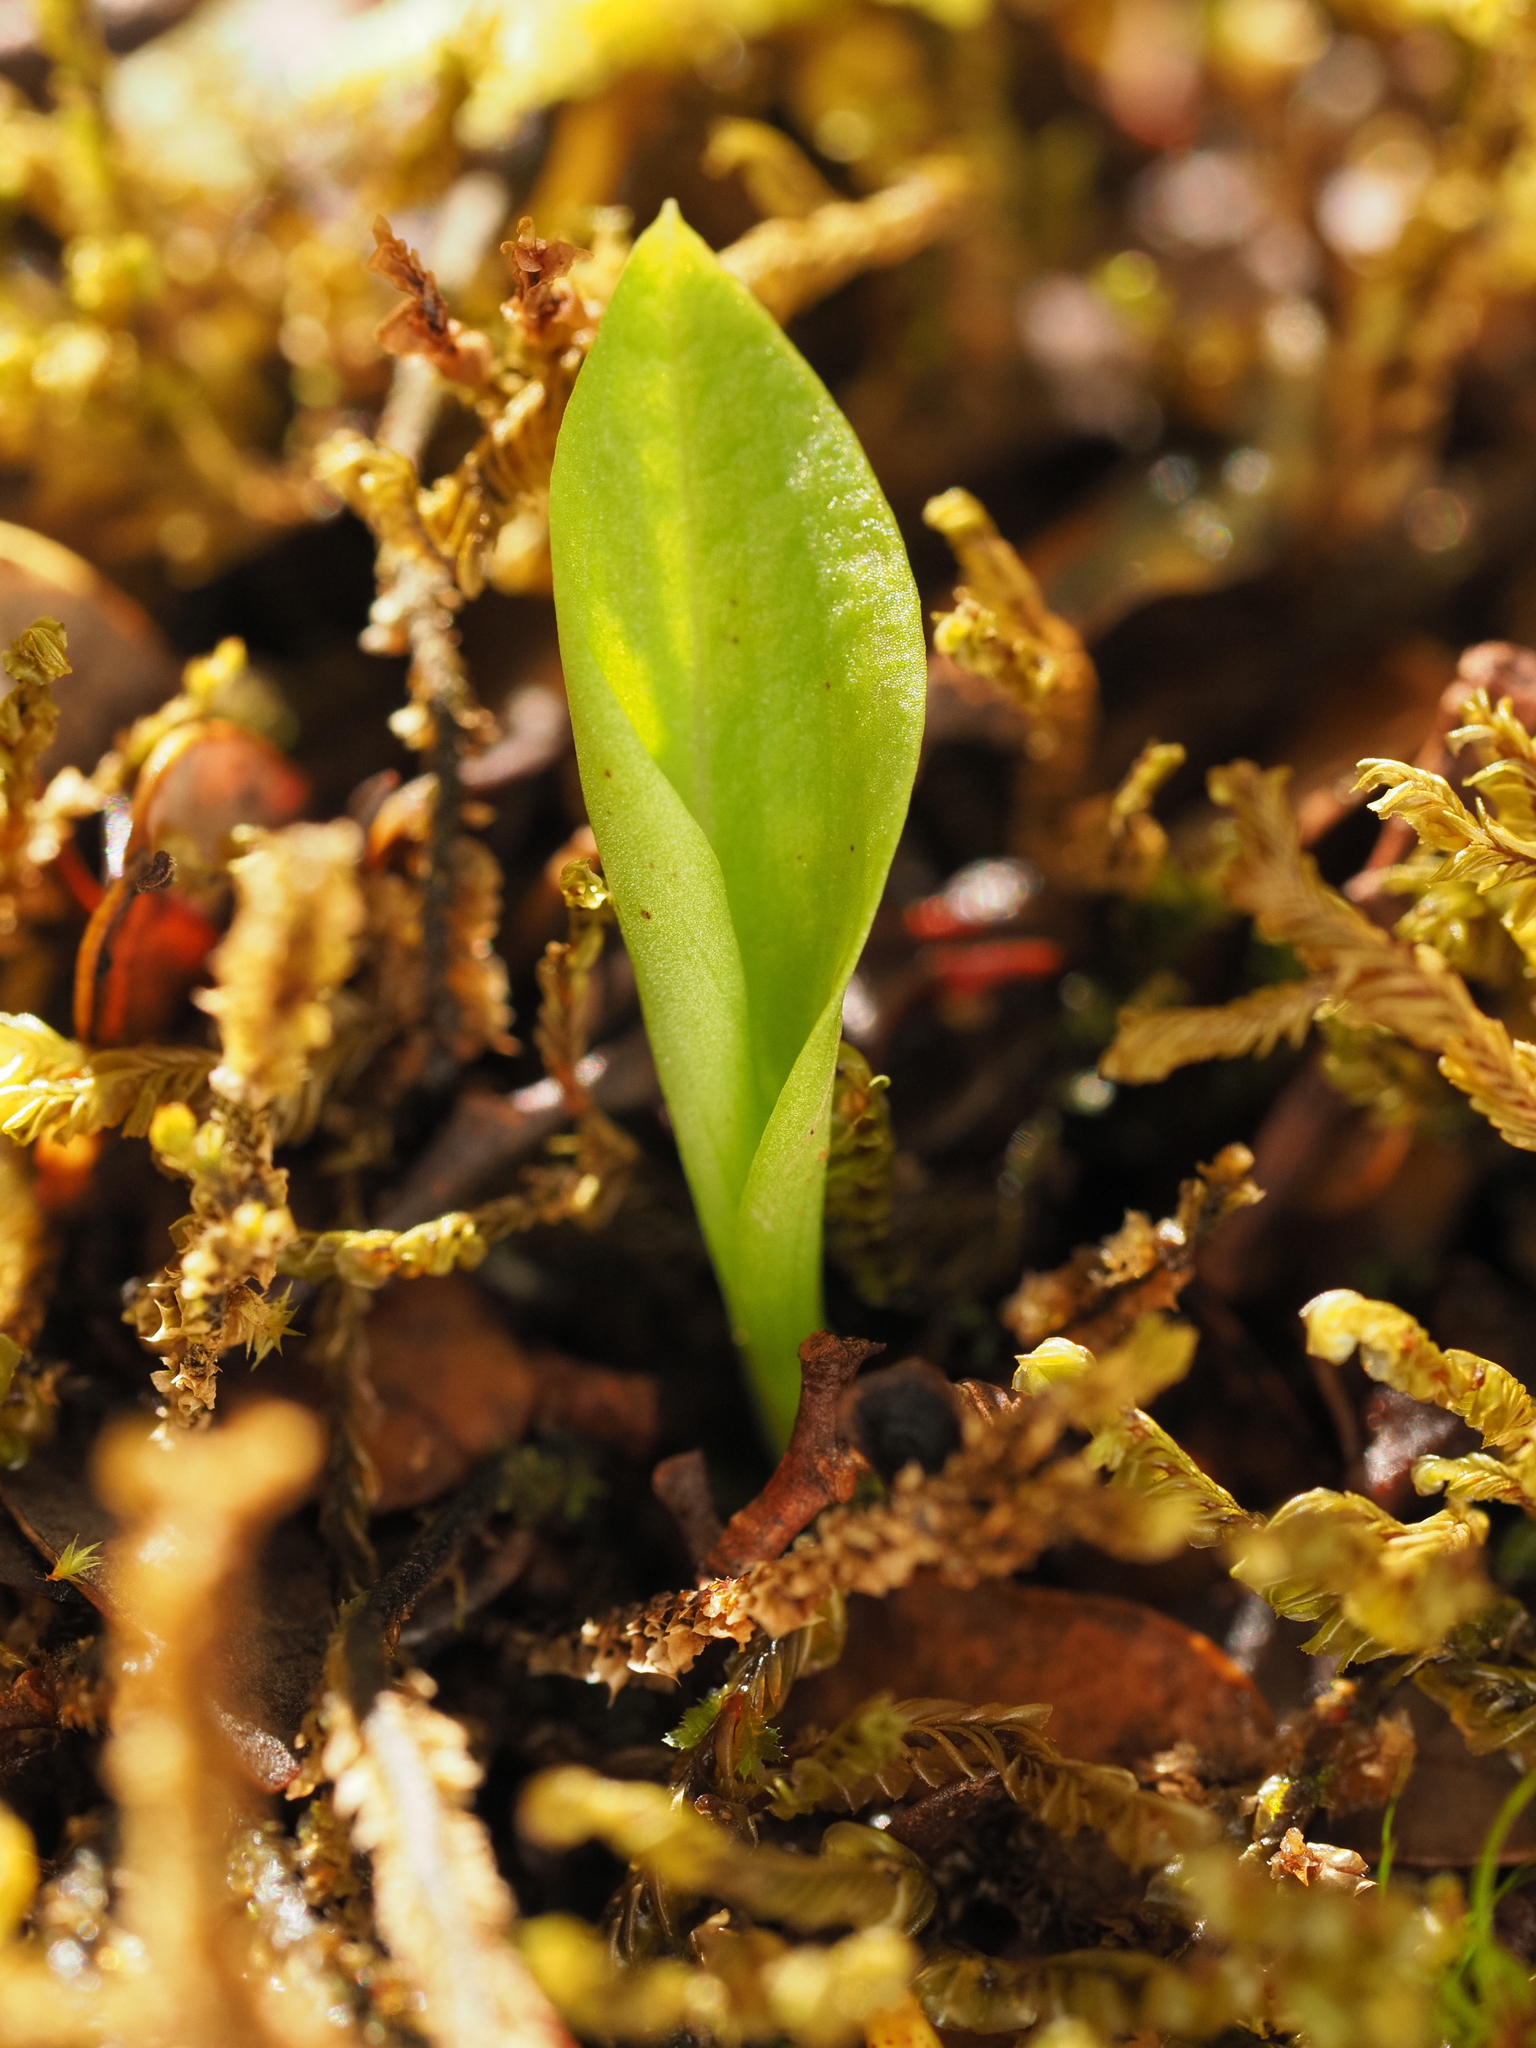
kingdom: Plantae
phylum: Tracheophyta
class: Liliopsida
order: Asparagales
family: Orchidaceae
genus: Adenochilus
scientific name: Adenochilus gracilis
